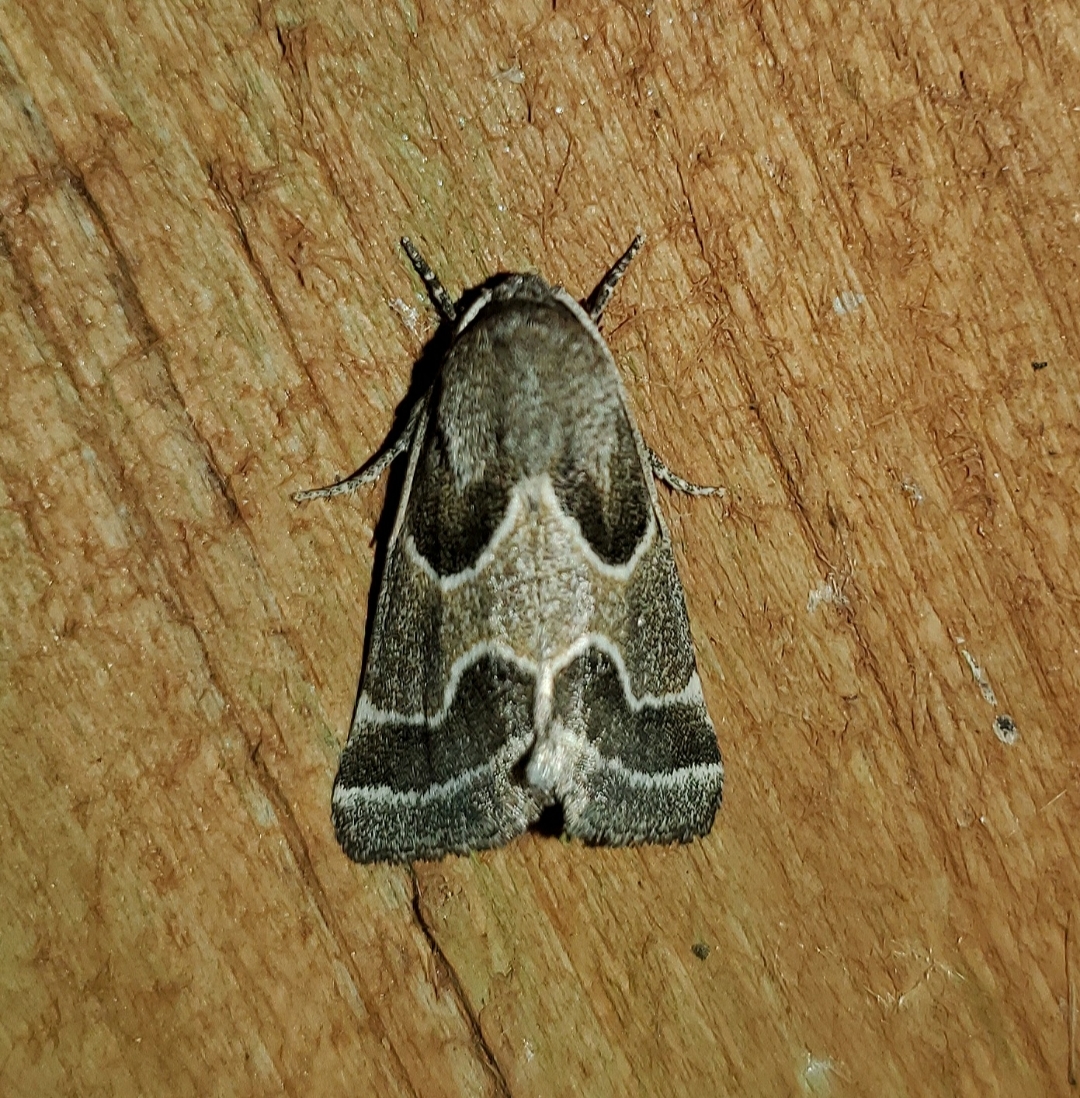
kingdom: Animalia
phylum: Arthropoda
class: Insecta
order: Lepidoptera
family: Noctuidae
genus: Schinia
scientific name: Schinia rivulosa
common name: Scarce meal-moth
